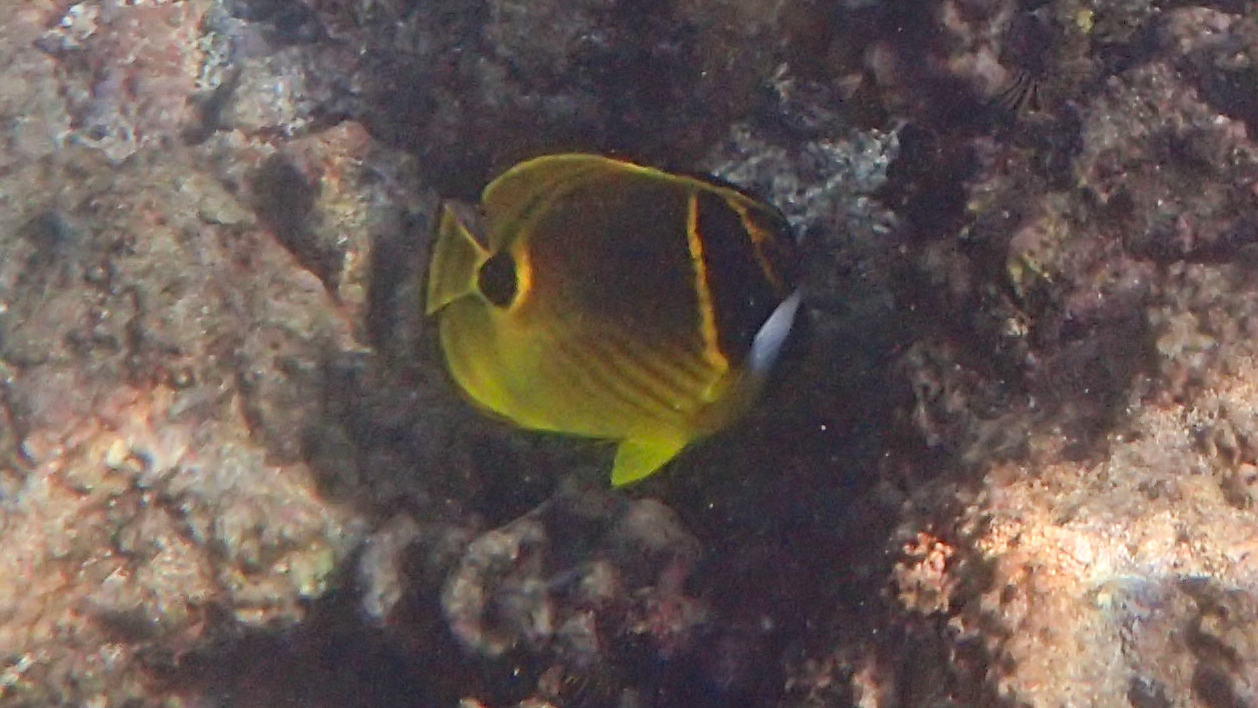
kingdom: Animalia
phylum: Chordata
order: Perciformes
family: Chaetodontidae
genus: Chaetodon
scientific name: Chaetodon lunula
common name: Raccoon butterflyfish
